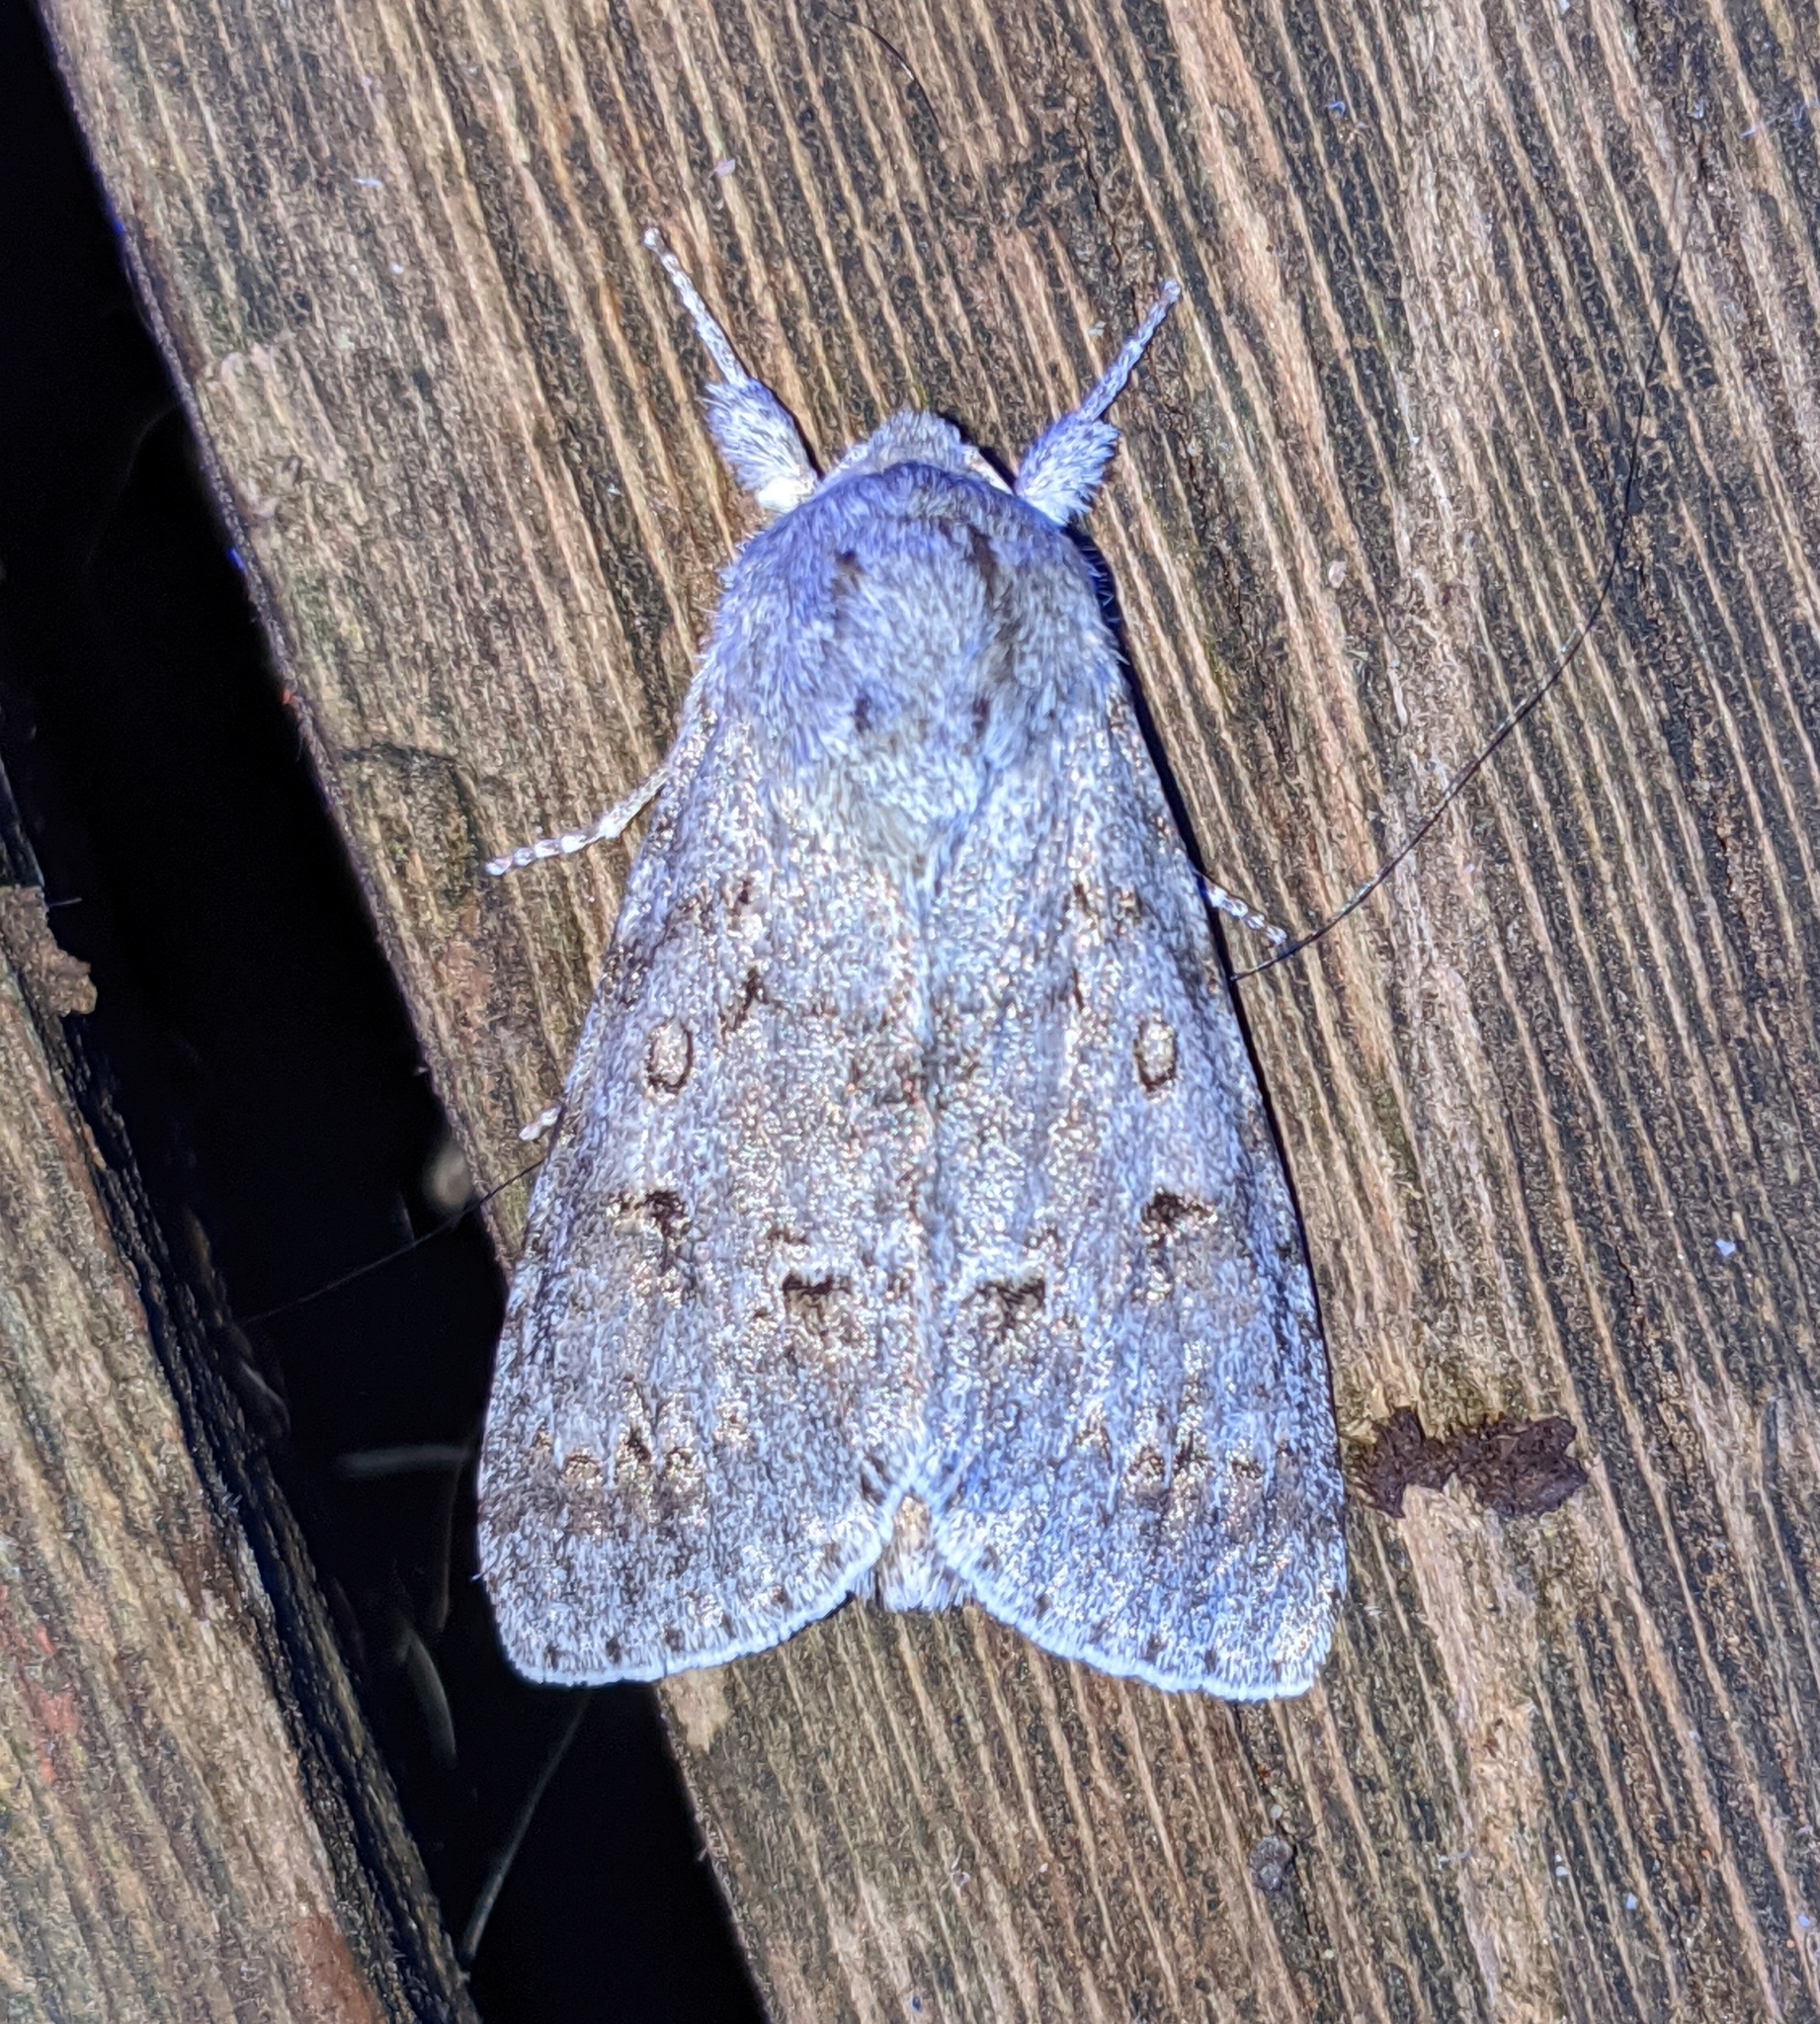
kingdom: Animalia
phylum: Arthropoda
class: Insecta
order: Lepidoptera
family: Noctuidae
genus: Acronicta
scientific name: Acronicta insita
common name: Large gray dagger
